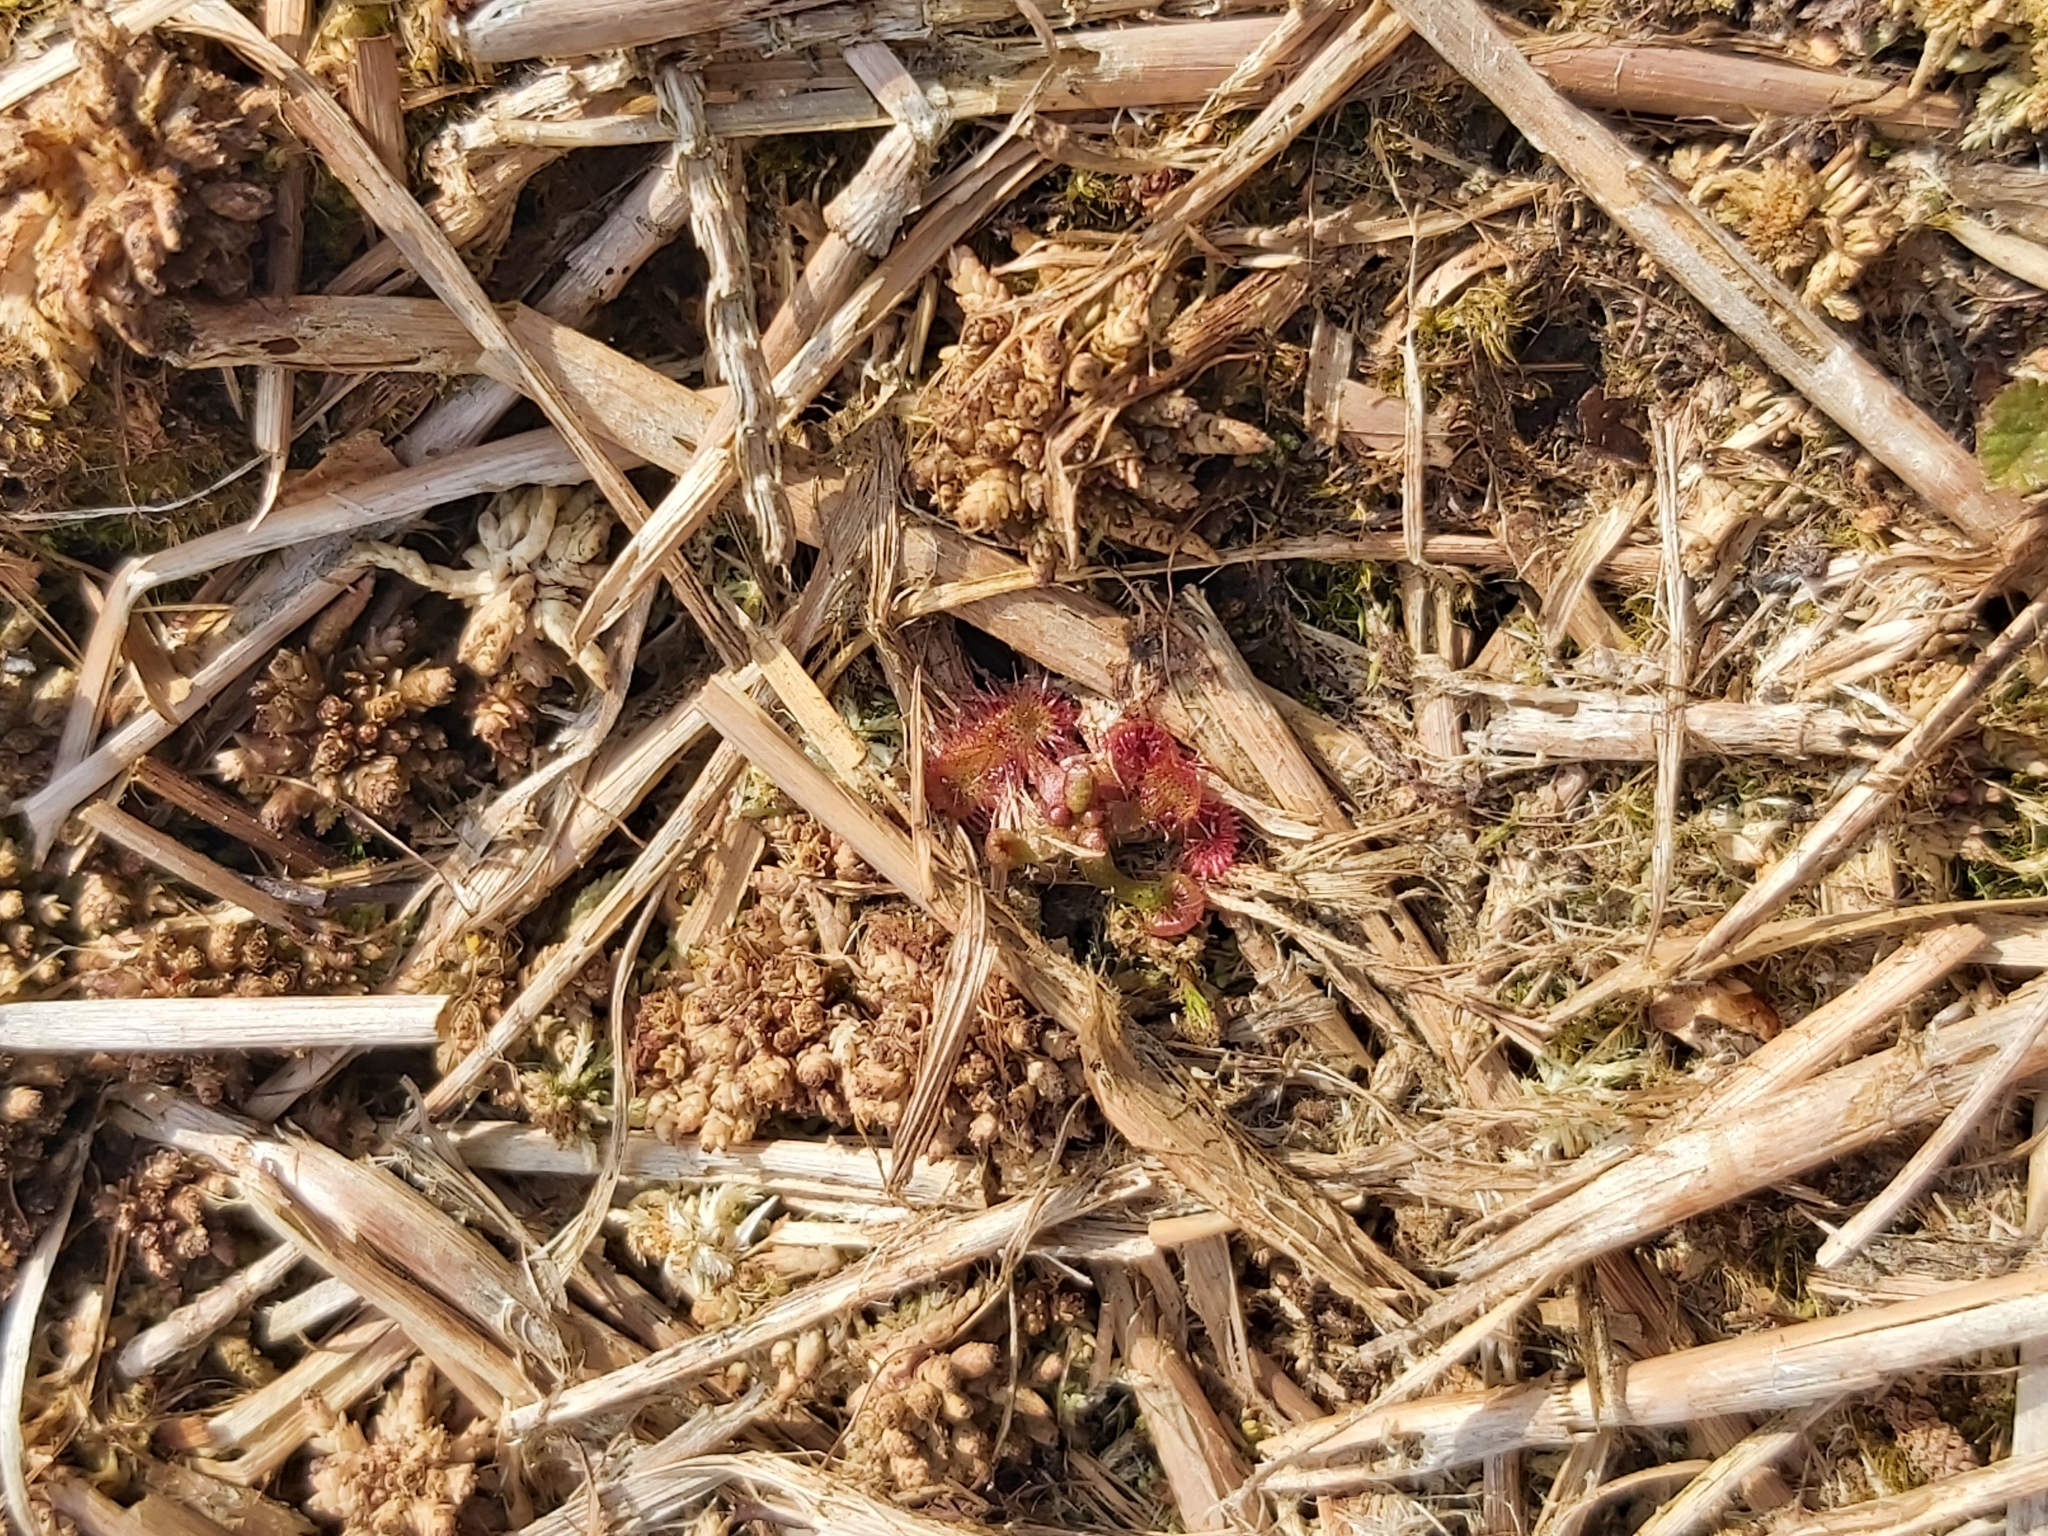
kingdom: Plantae
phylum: Tracheophyta
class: Magnoliopsida
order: Caryophyllales
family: Droseraceae
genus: Drosera
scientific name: Drosera rotundifolia
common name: Round-leaved sundew
